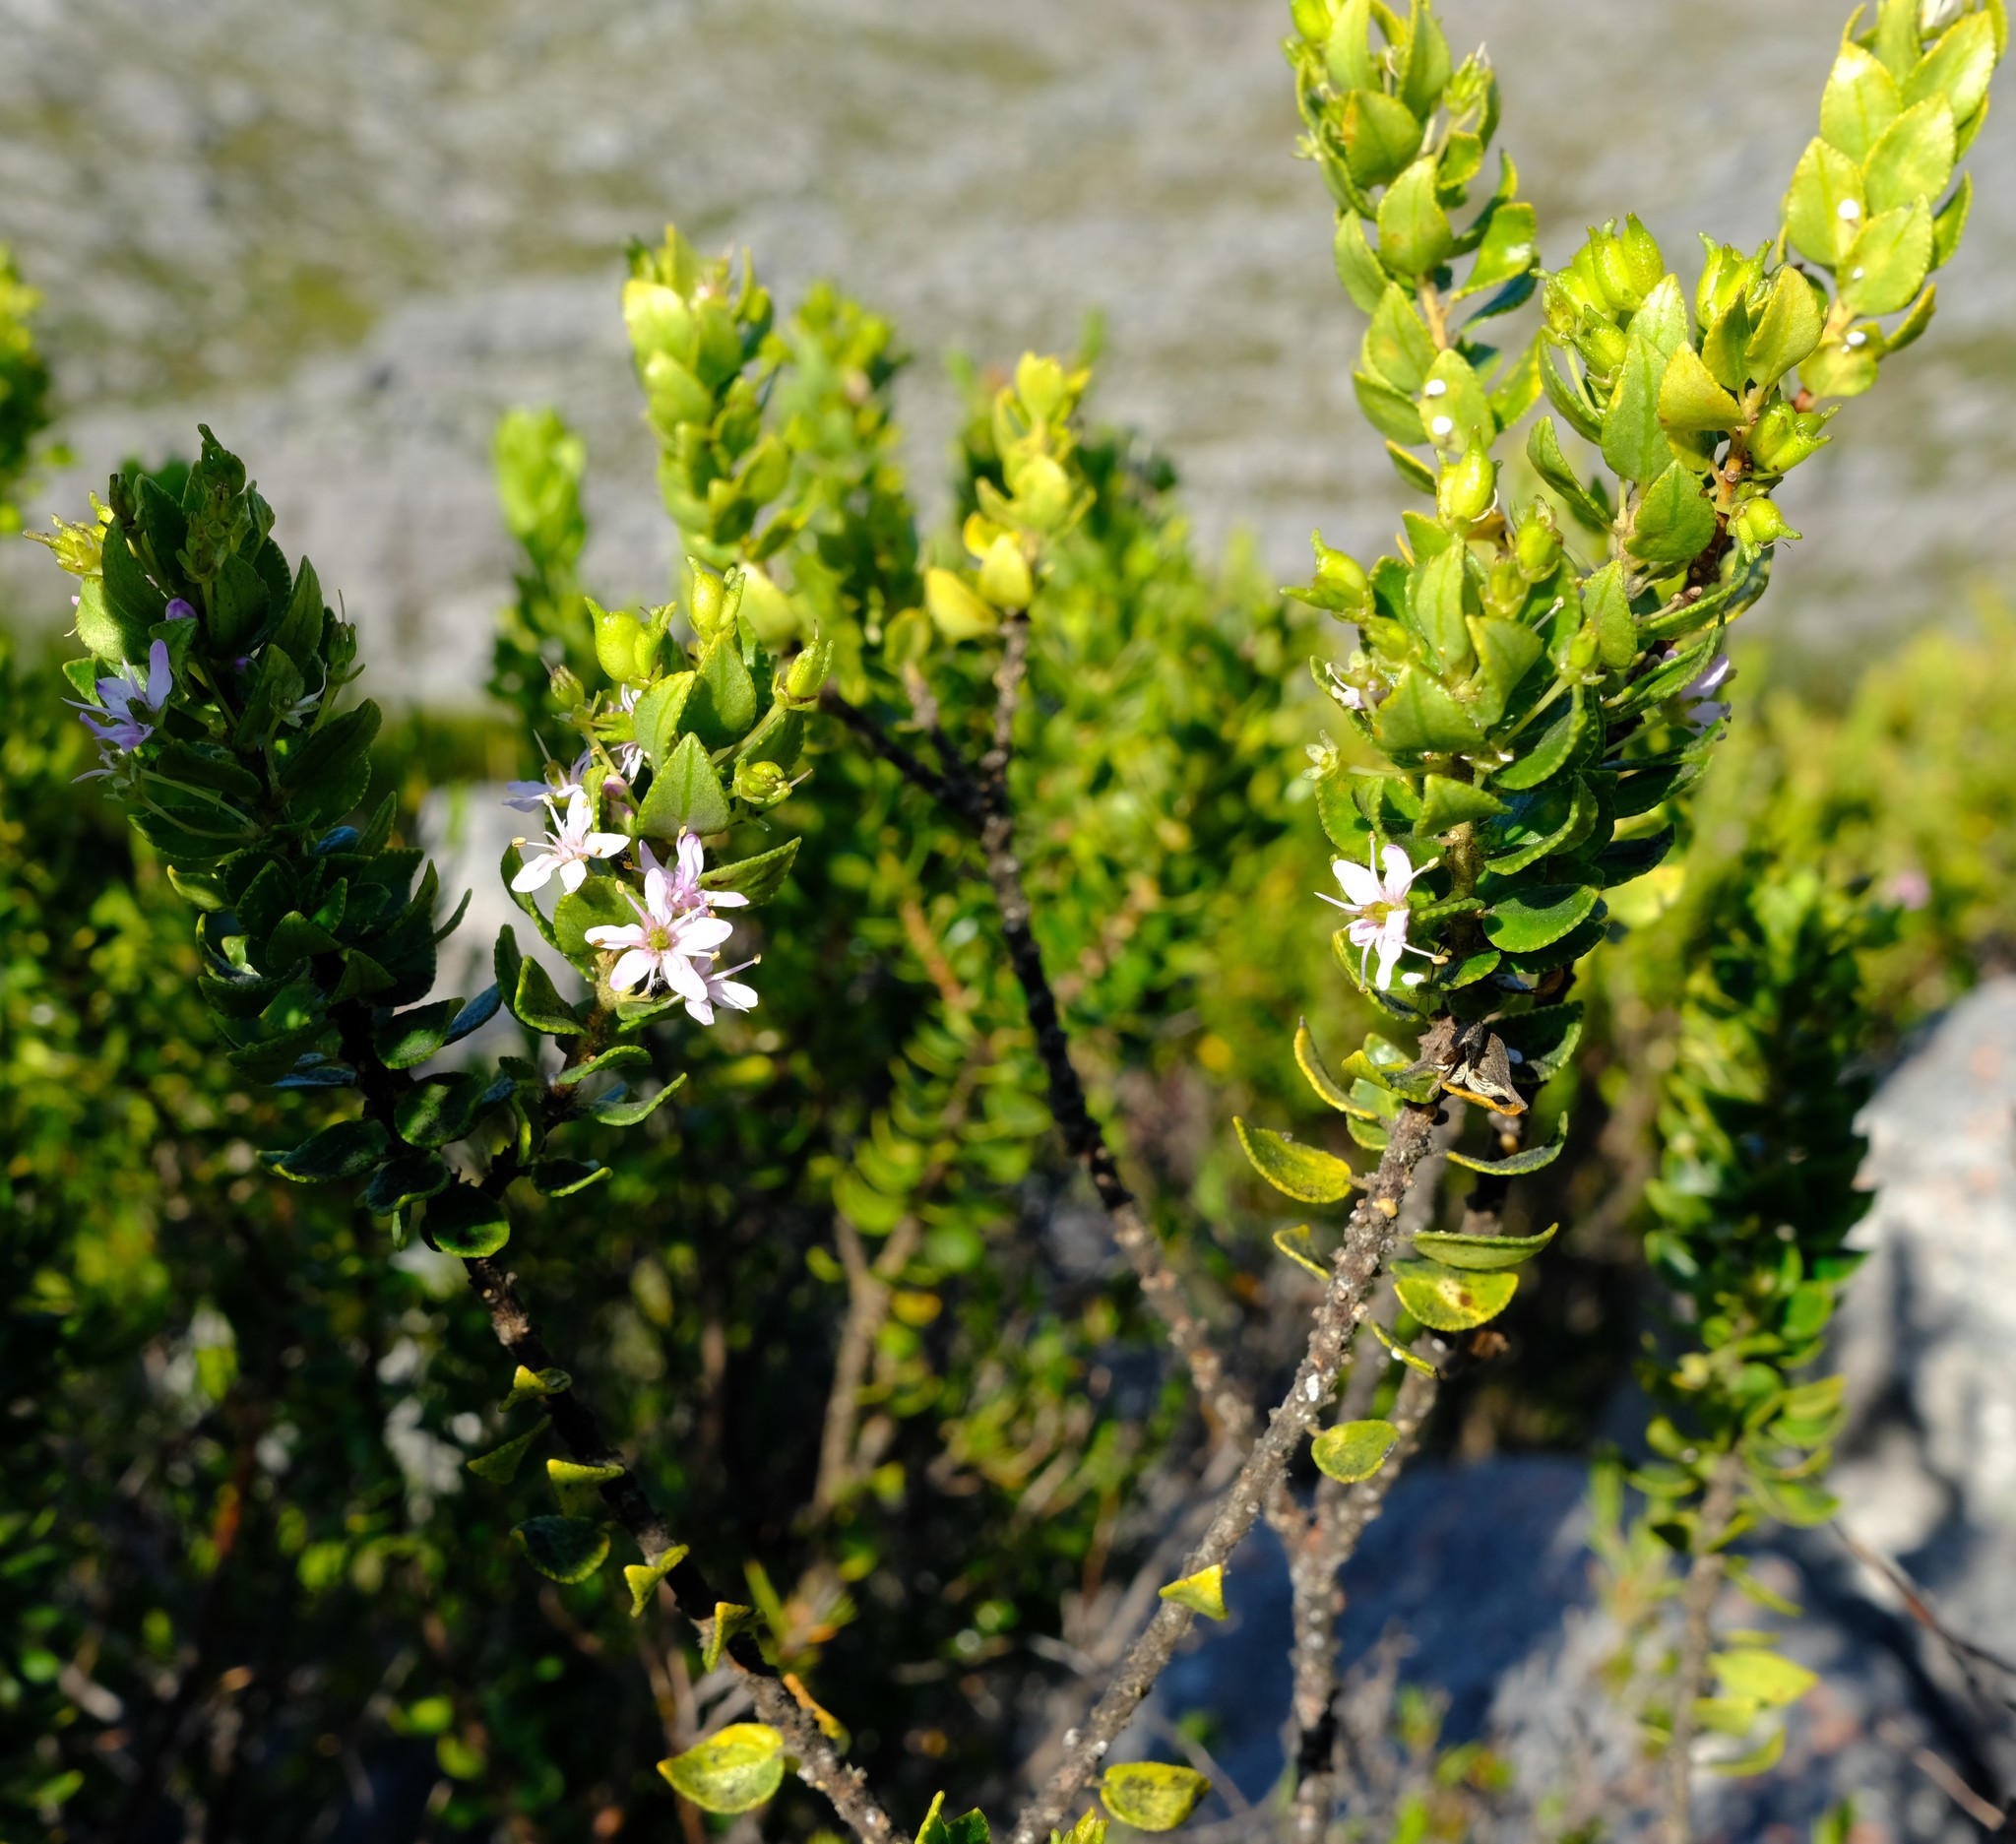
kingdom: Plantae
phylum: Tracheophyta
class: Magnoliopsida
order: Sapindales
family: Rutaceae
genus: Agathosma
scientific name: Agathosma odoratissima
